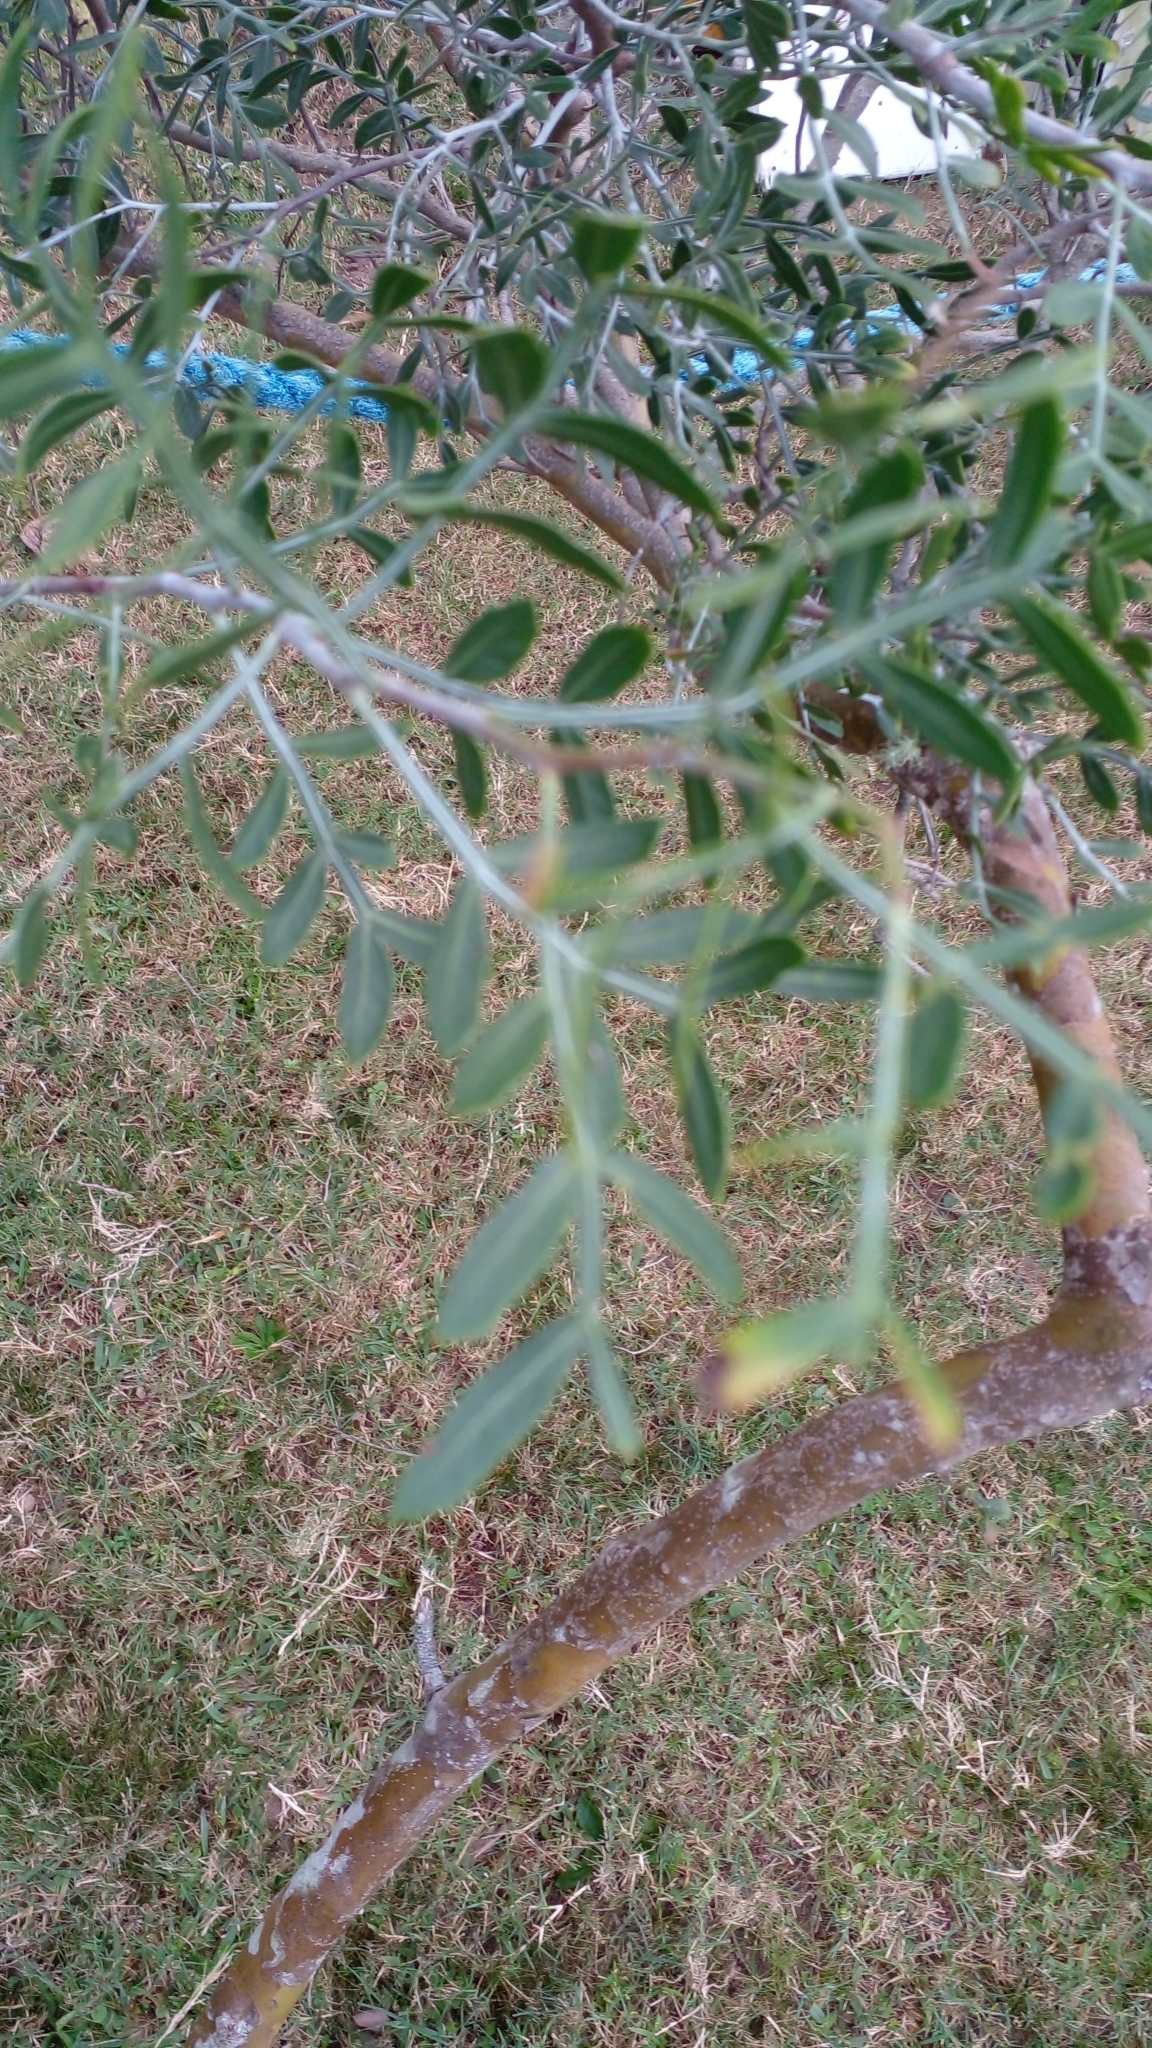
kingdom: Plantae
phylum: Tracheophyta
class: Magnoliopsida
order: Sapindales
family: Anacardiaceae
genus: Schinus
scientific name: Schinus lentiscifolia
